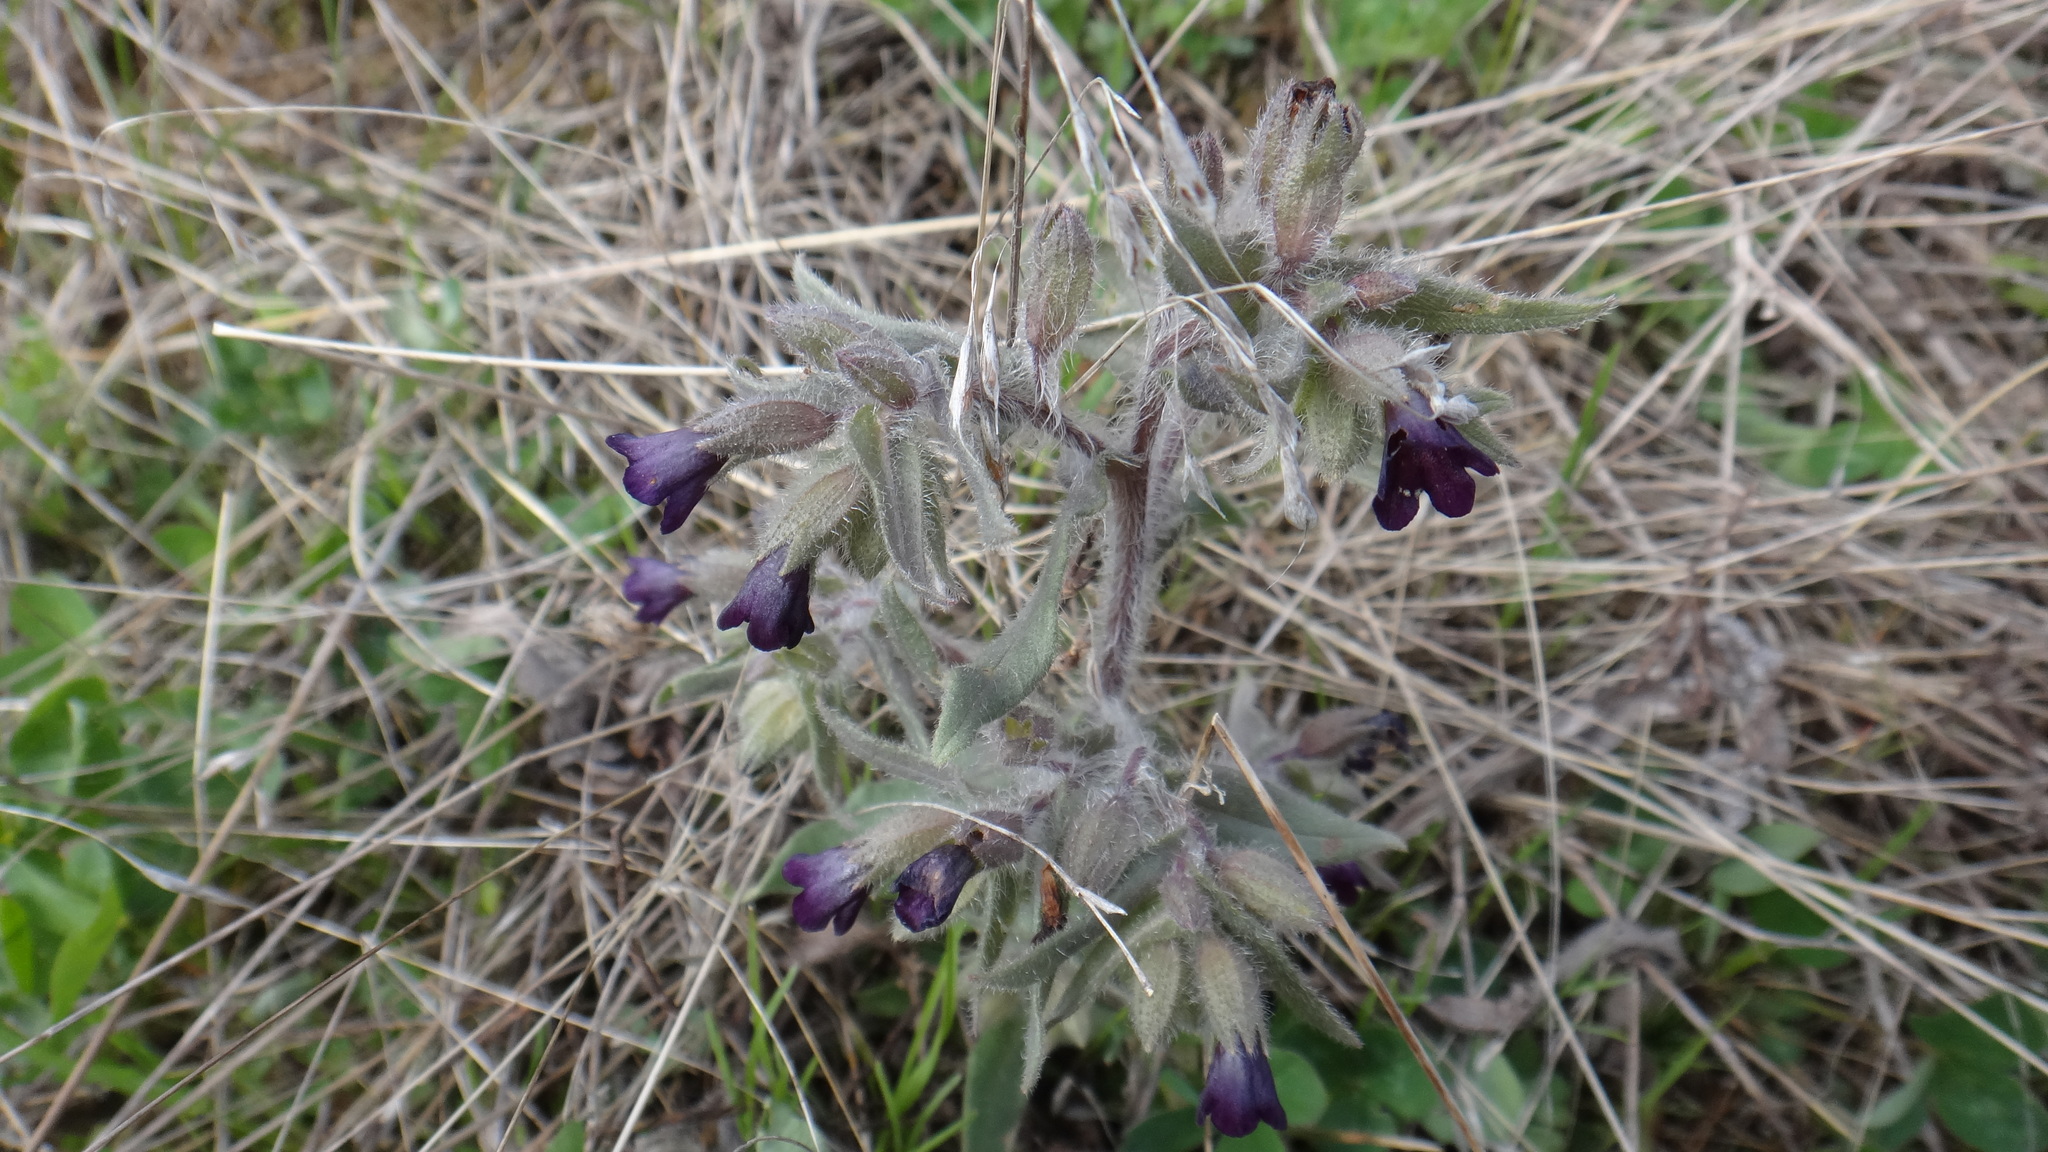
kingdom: Plantae
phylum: Tracheophyta
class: Magnoliopsida
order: Boraginales
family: Boraginaceae
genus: Nonea
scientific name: Nonea pulla
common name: Brown nonea
